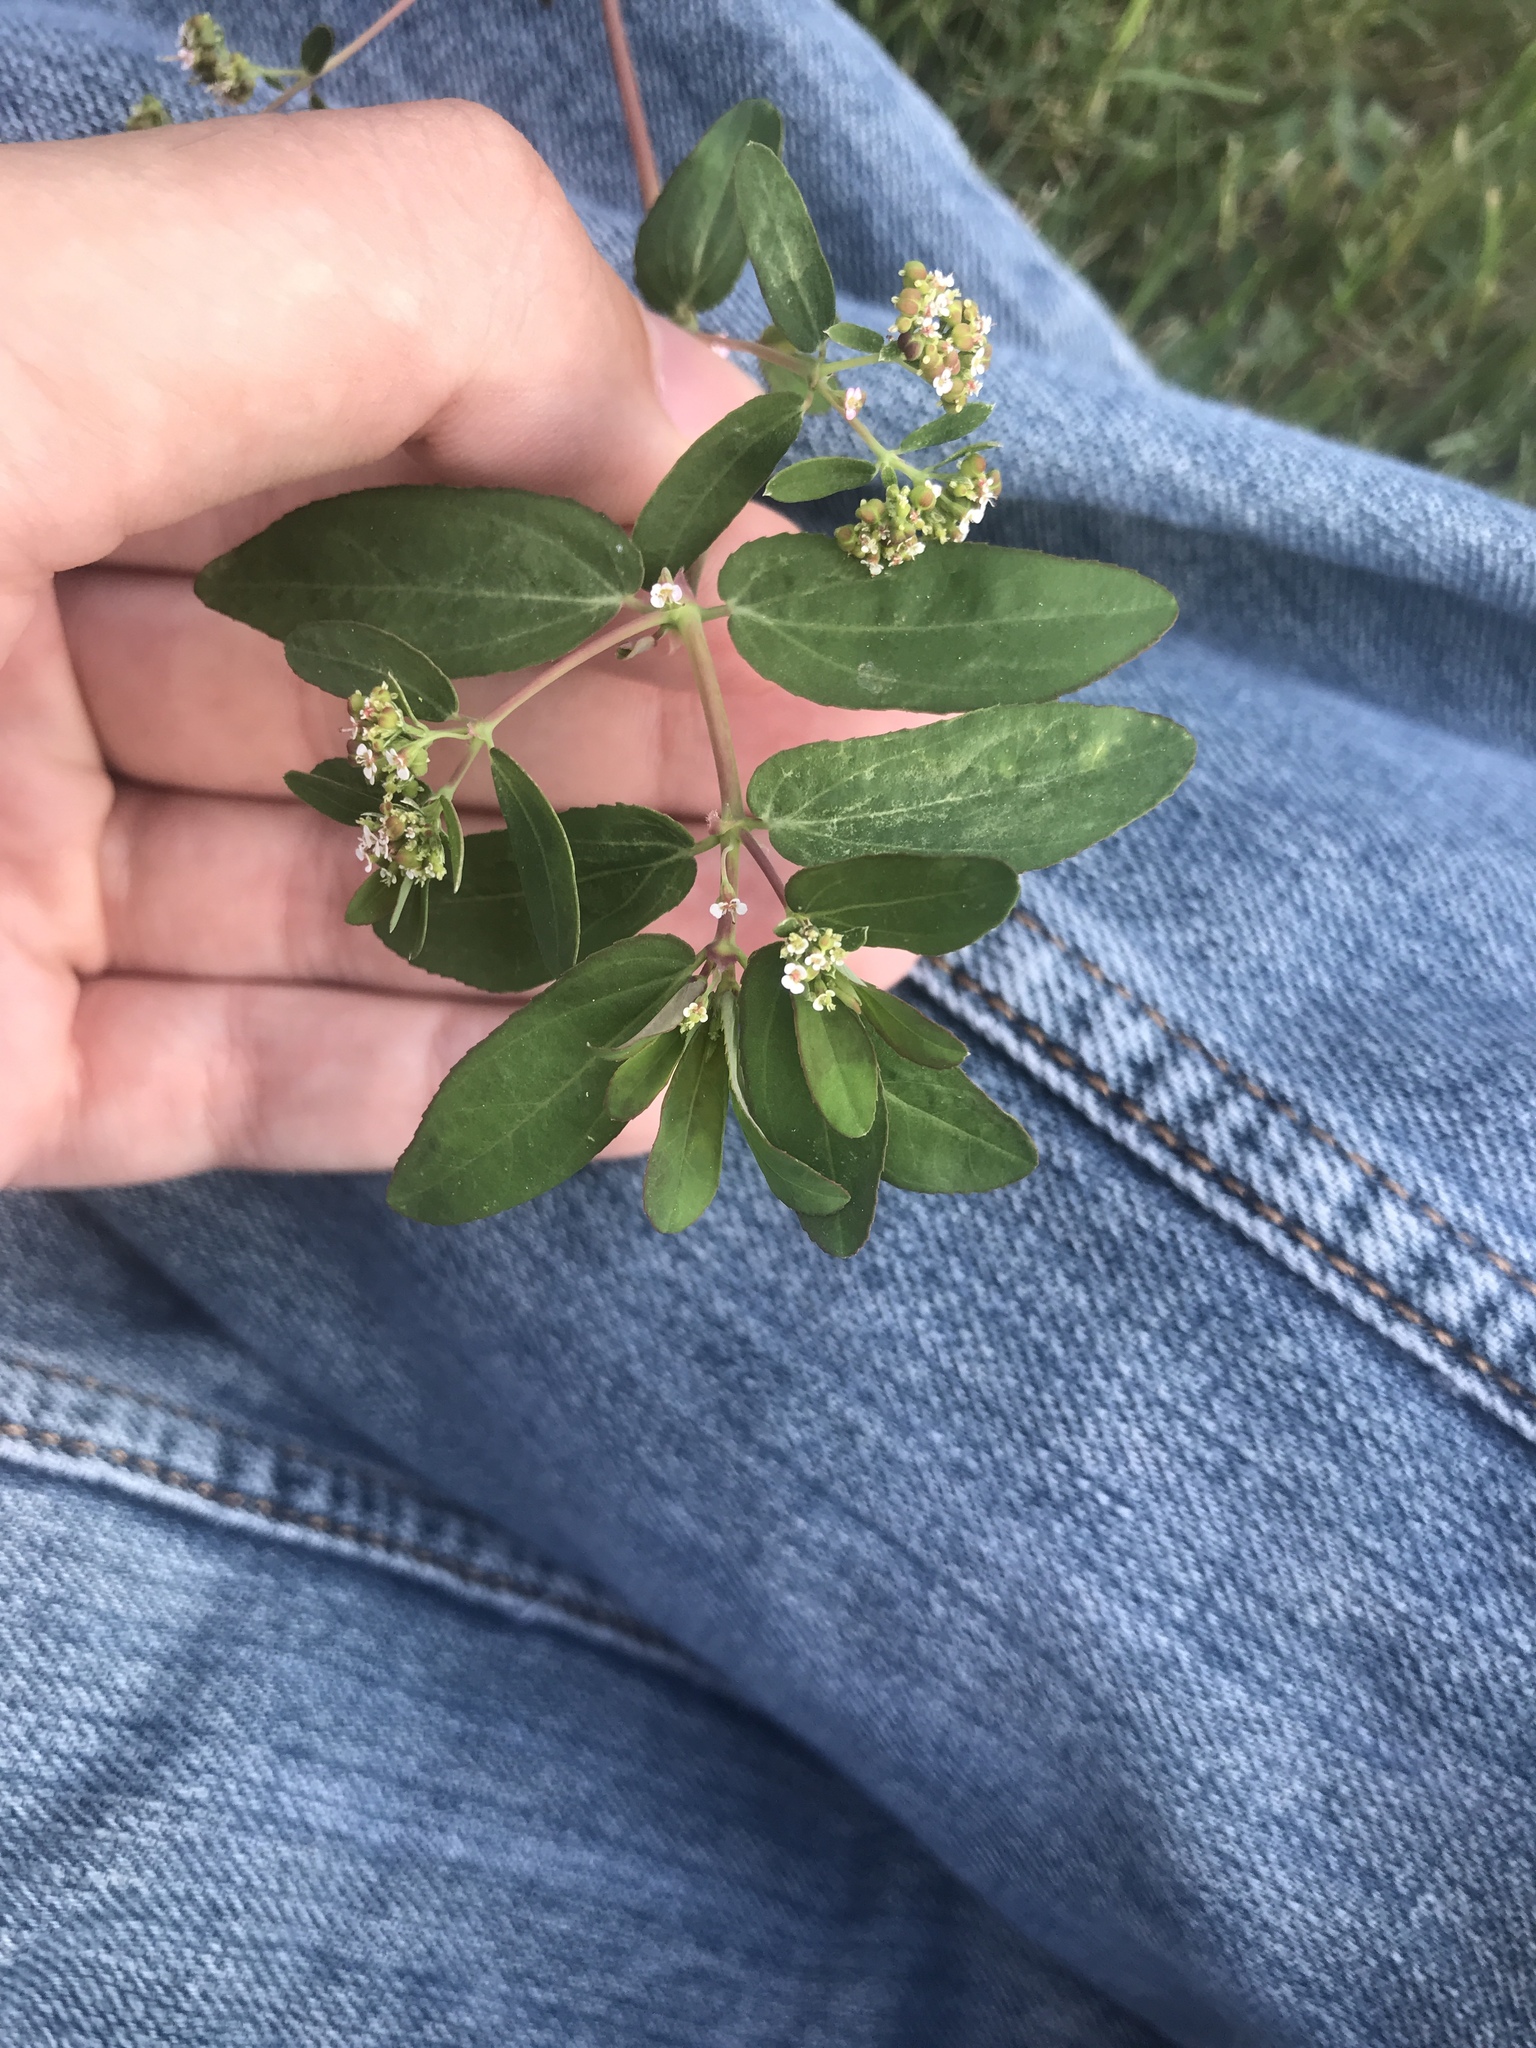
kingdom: Plantae
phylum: Tracheophyta
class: Magnoliopsida
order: Malpighiales
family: Euphorbiaceae
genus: Euphorbia
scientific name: Euphorbia hypericifolia
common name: Graceful sandmat
